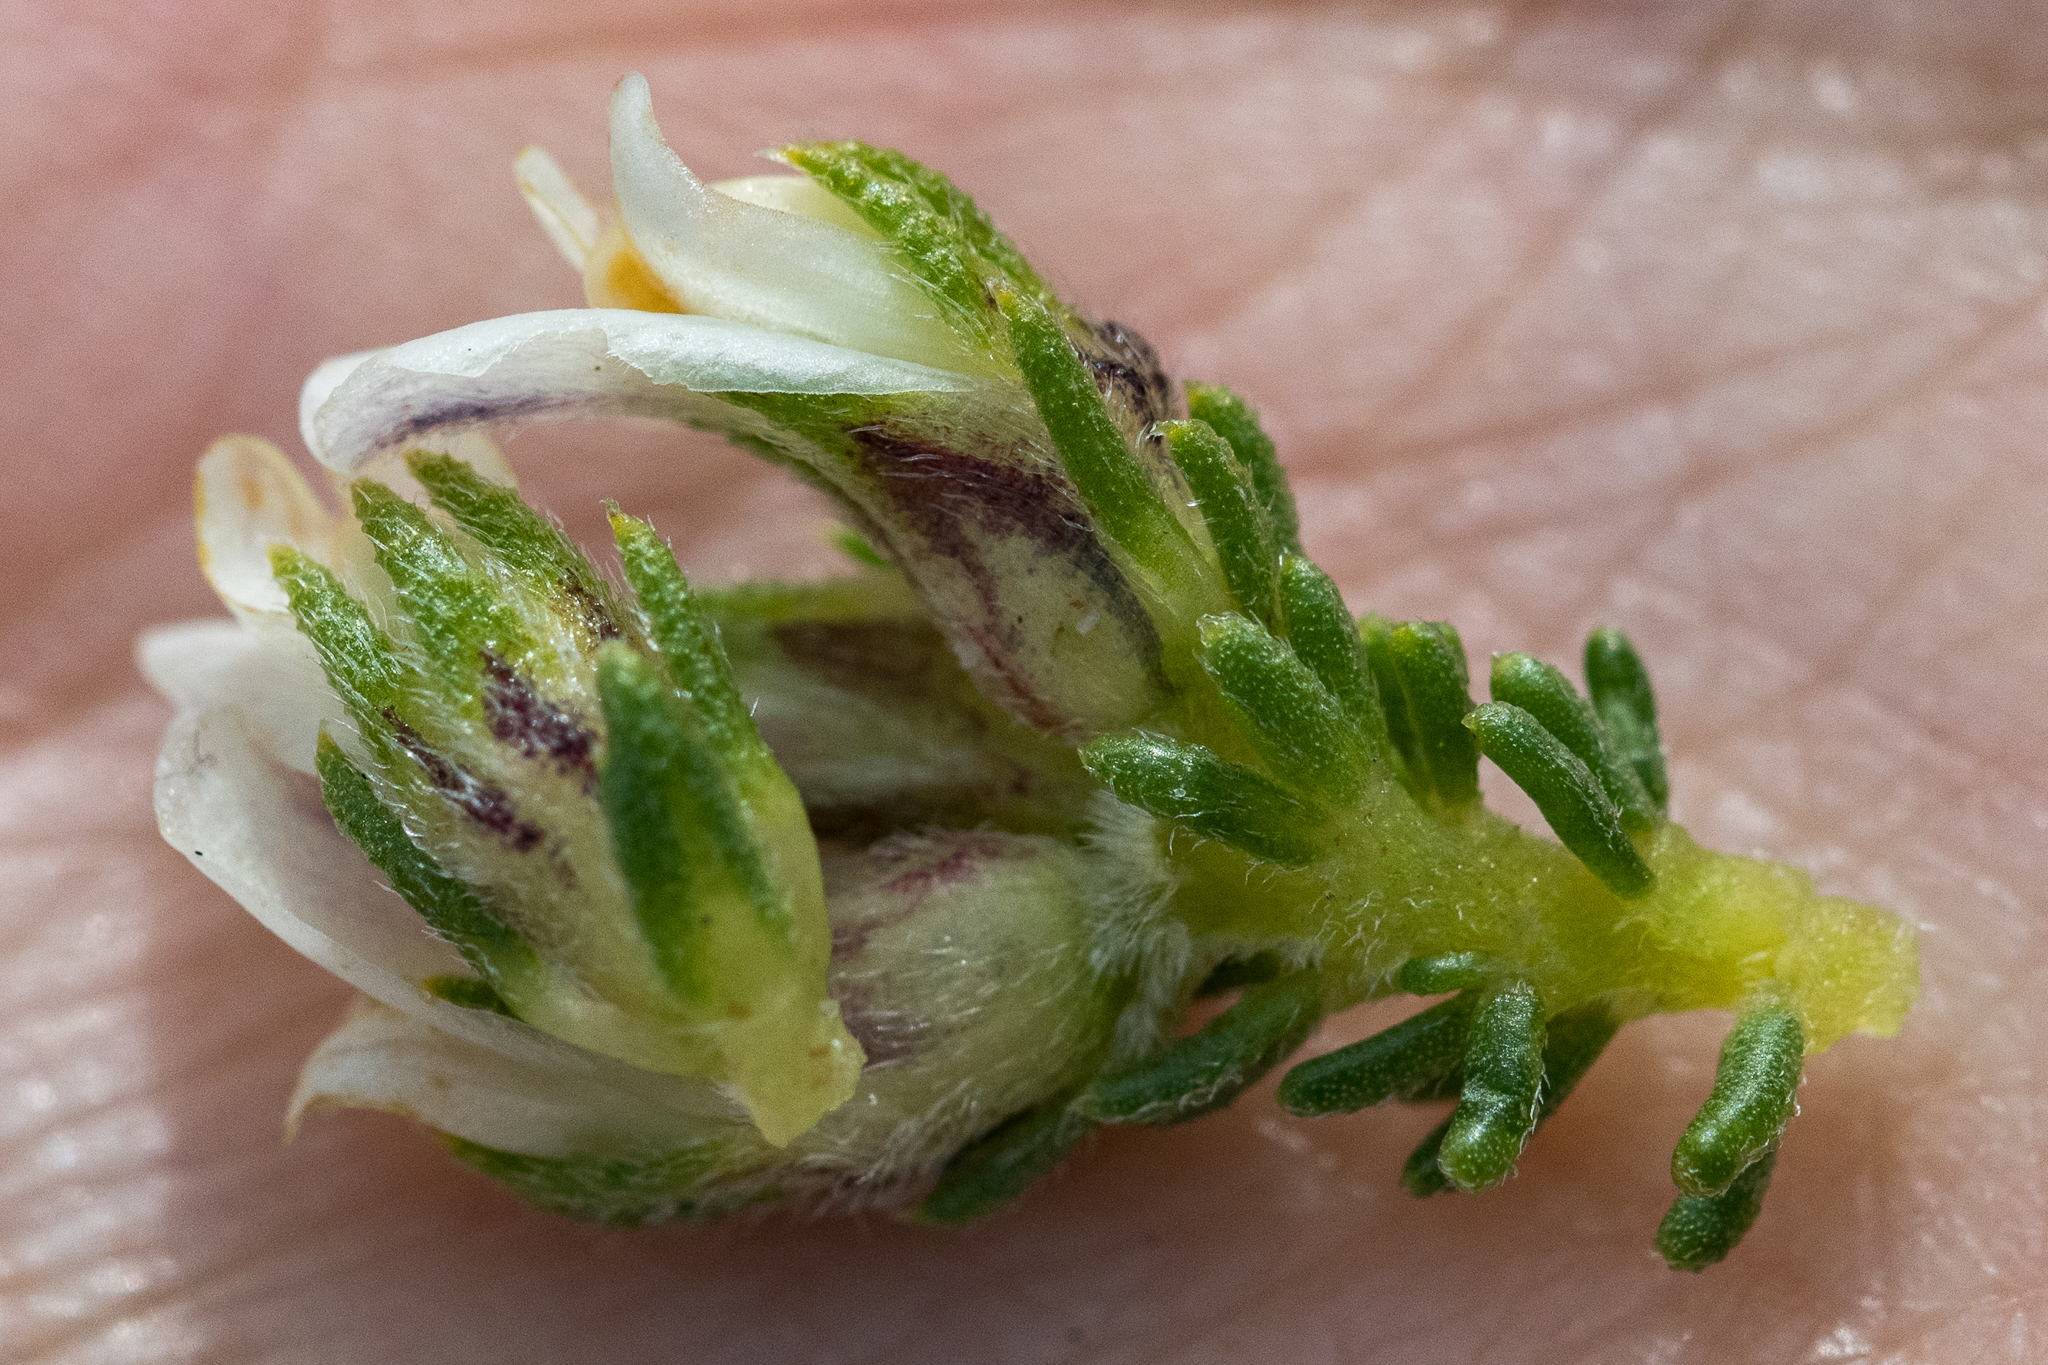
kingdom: Plantae
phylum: Tracheophyta
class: Magnoliopsida
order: Fabales
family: Fabaceae
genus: Aspalathus
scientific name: Aspalathus forbesii
